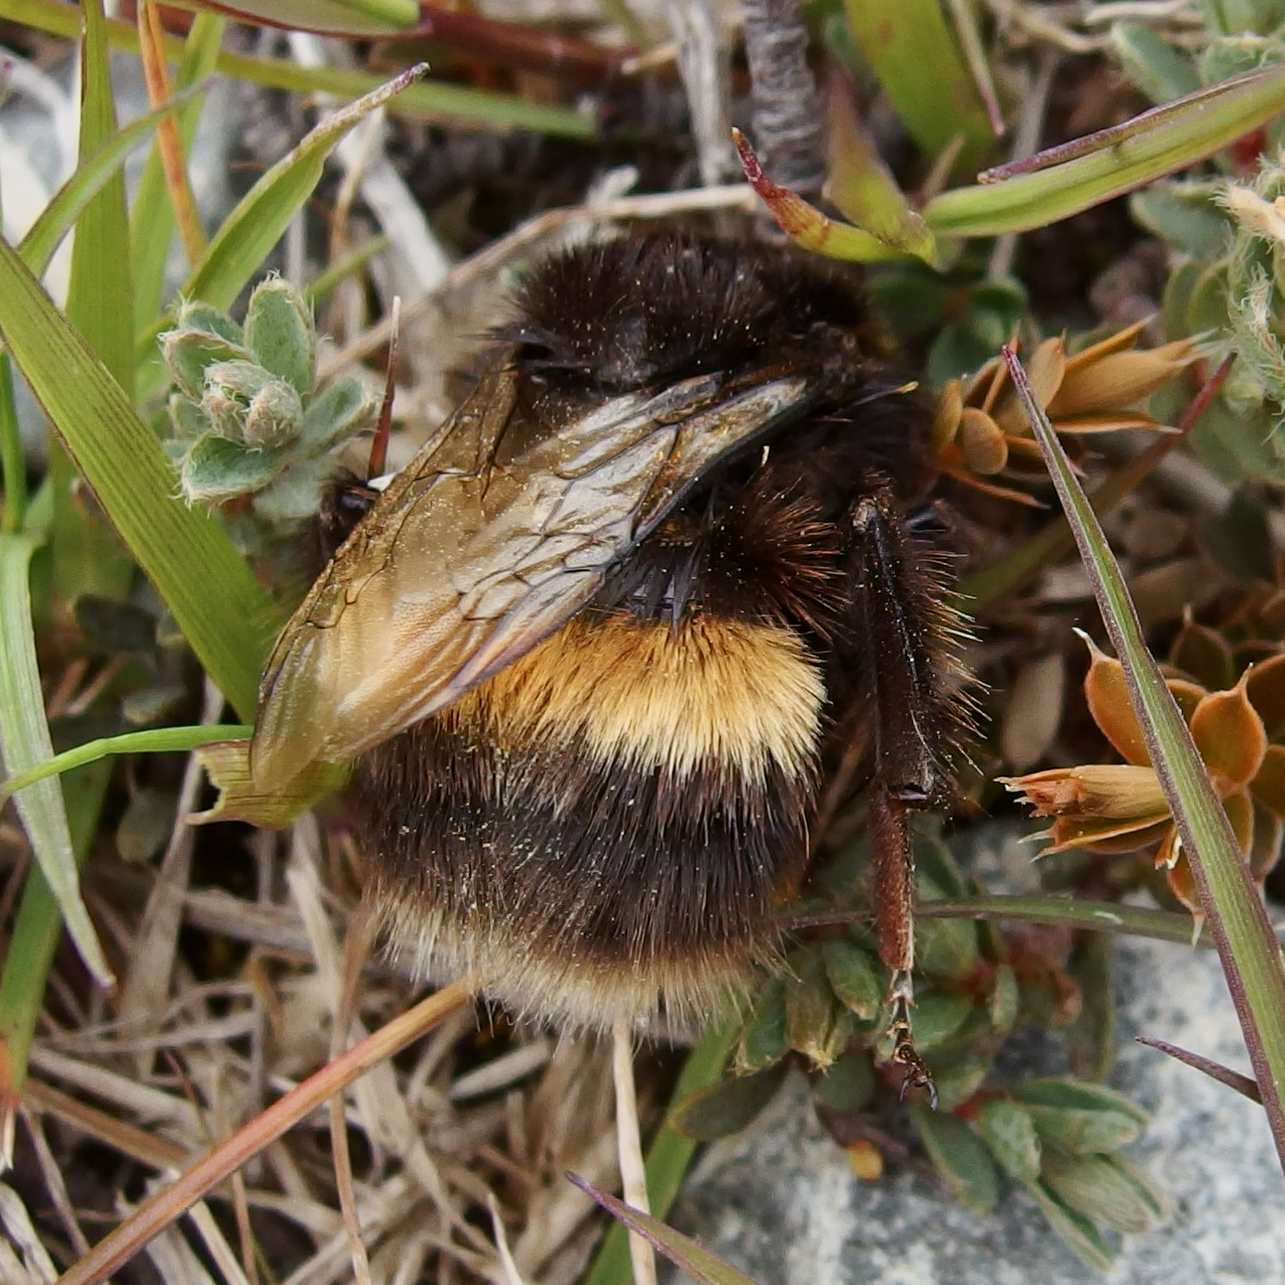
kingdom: Animalia
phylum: Arthropoda
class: Insecta
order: Hymenoptera
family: Apidae
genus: Bombus
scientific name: Bombus terrestris
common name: Buff-tailed bumblebee
